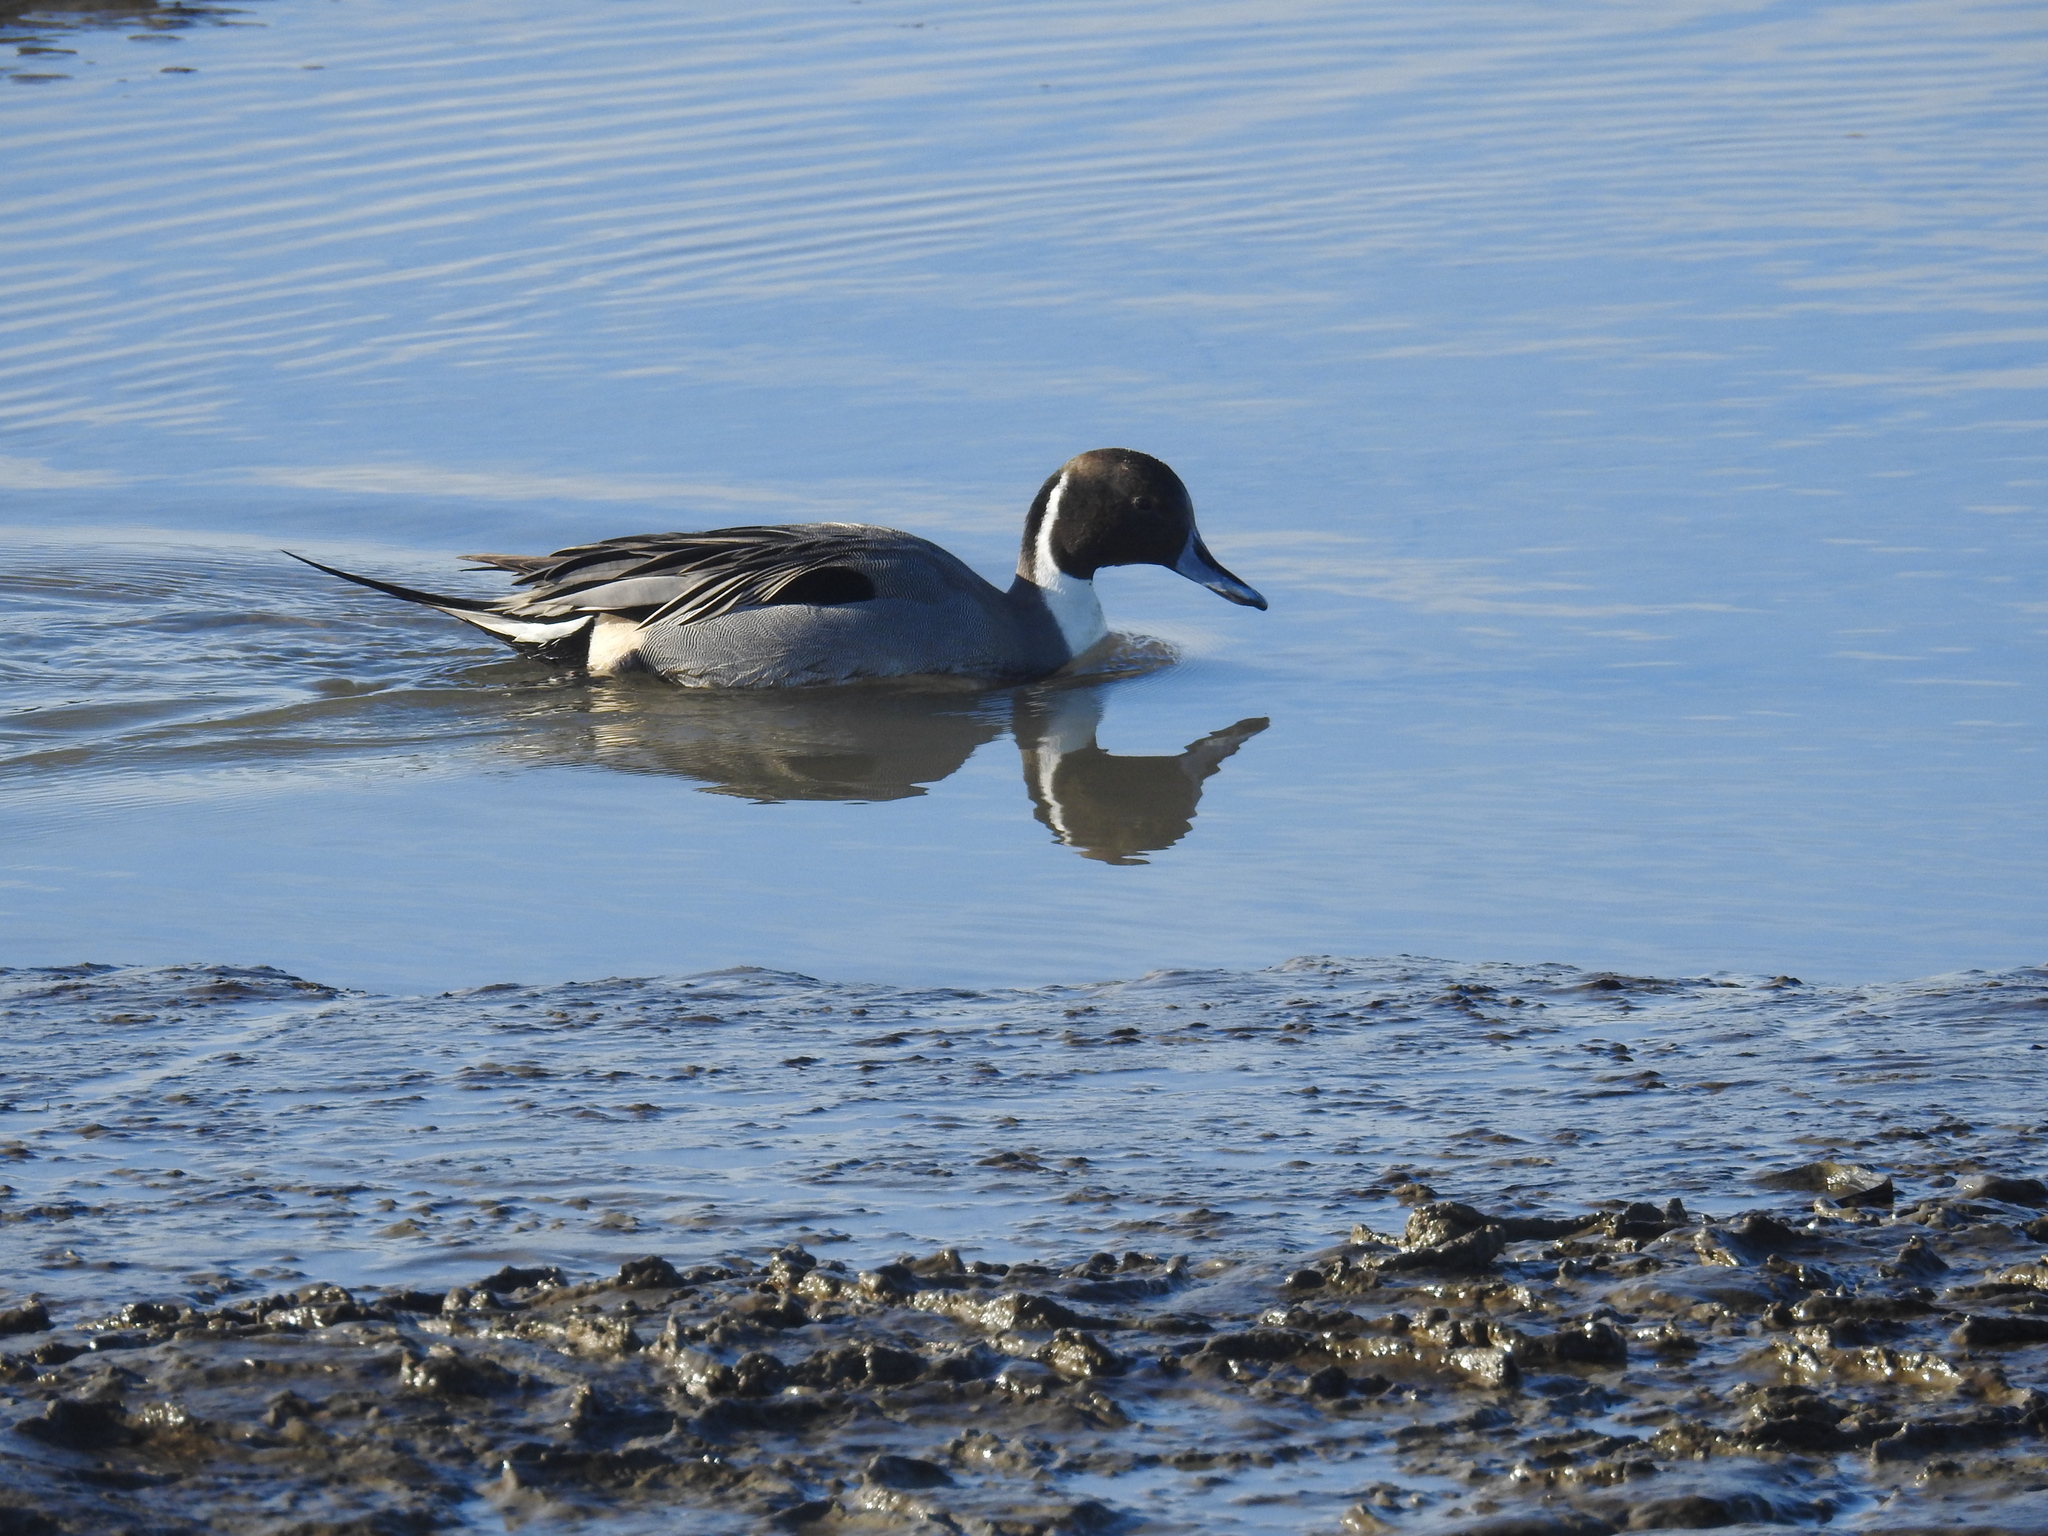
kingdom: Animalia
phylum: Chordata
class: Aves
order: Anseriformes
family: Anatidae
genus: Anas
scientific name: Anas acuta
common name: Northern pintail
